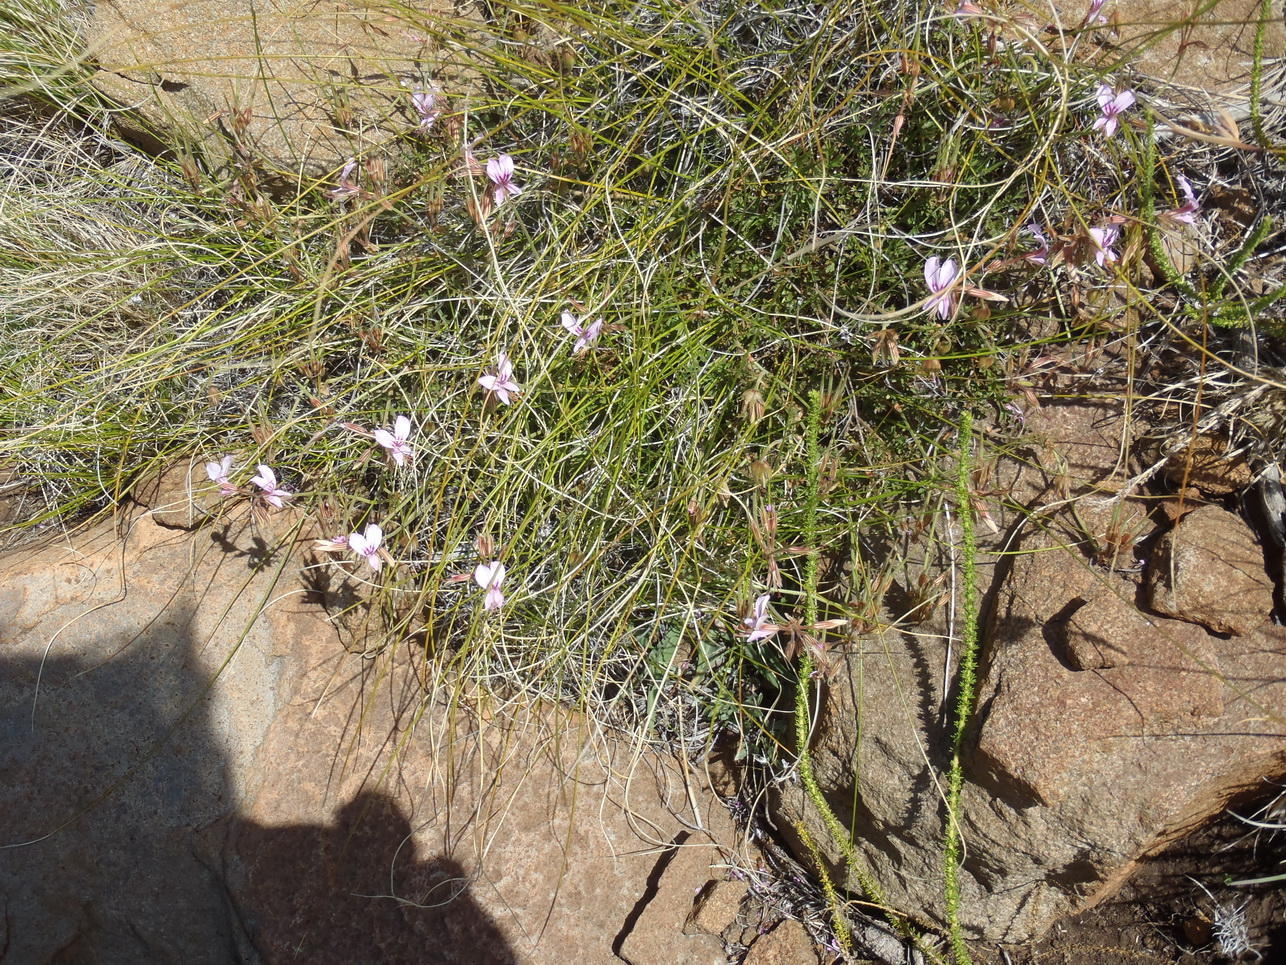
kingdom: Plantae
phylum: Tracheophyta
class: Magnoliopsida
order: Geraniales
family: Geraniaceae
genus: Pelargonium
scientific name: Pelargonium multicaule
